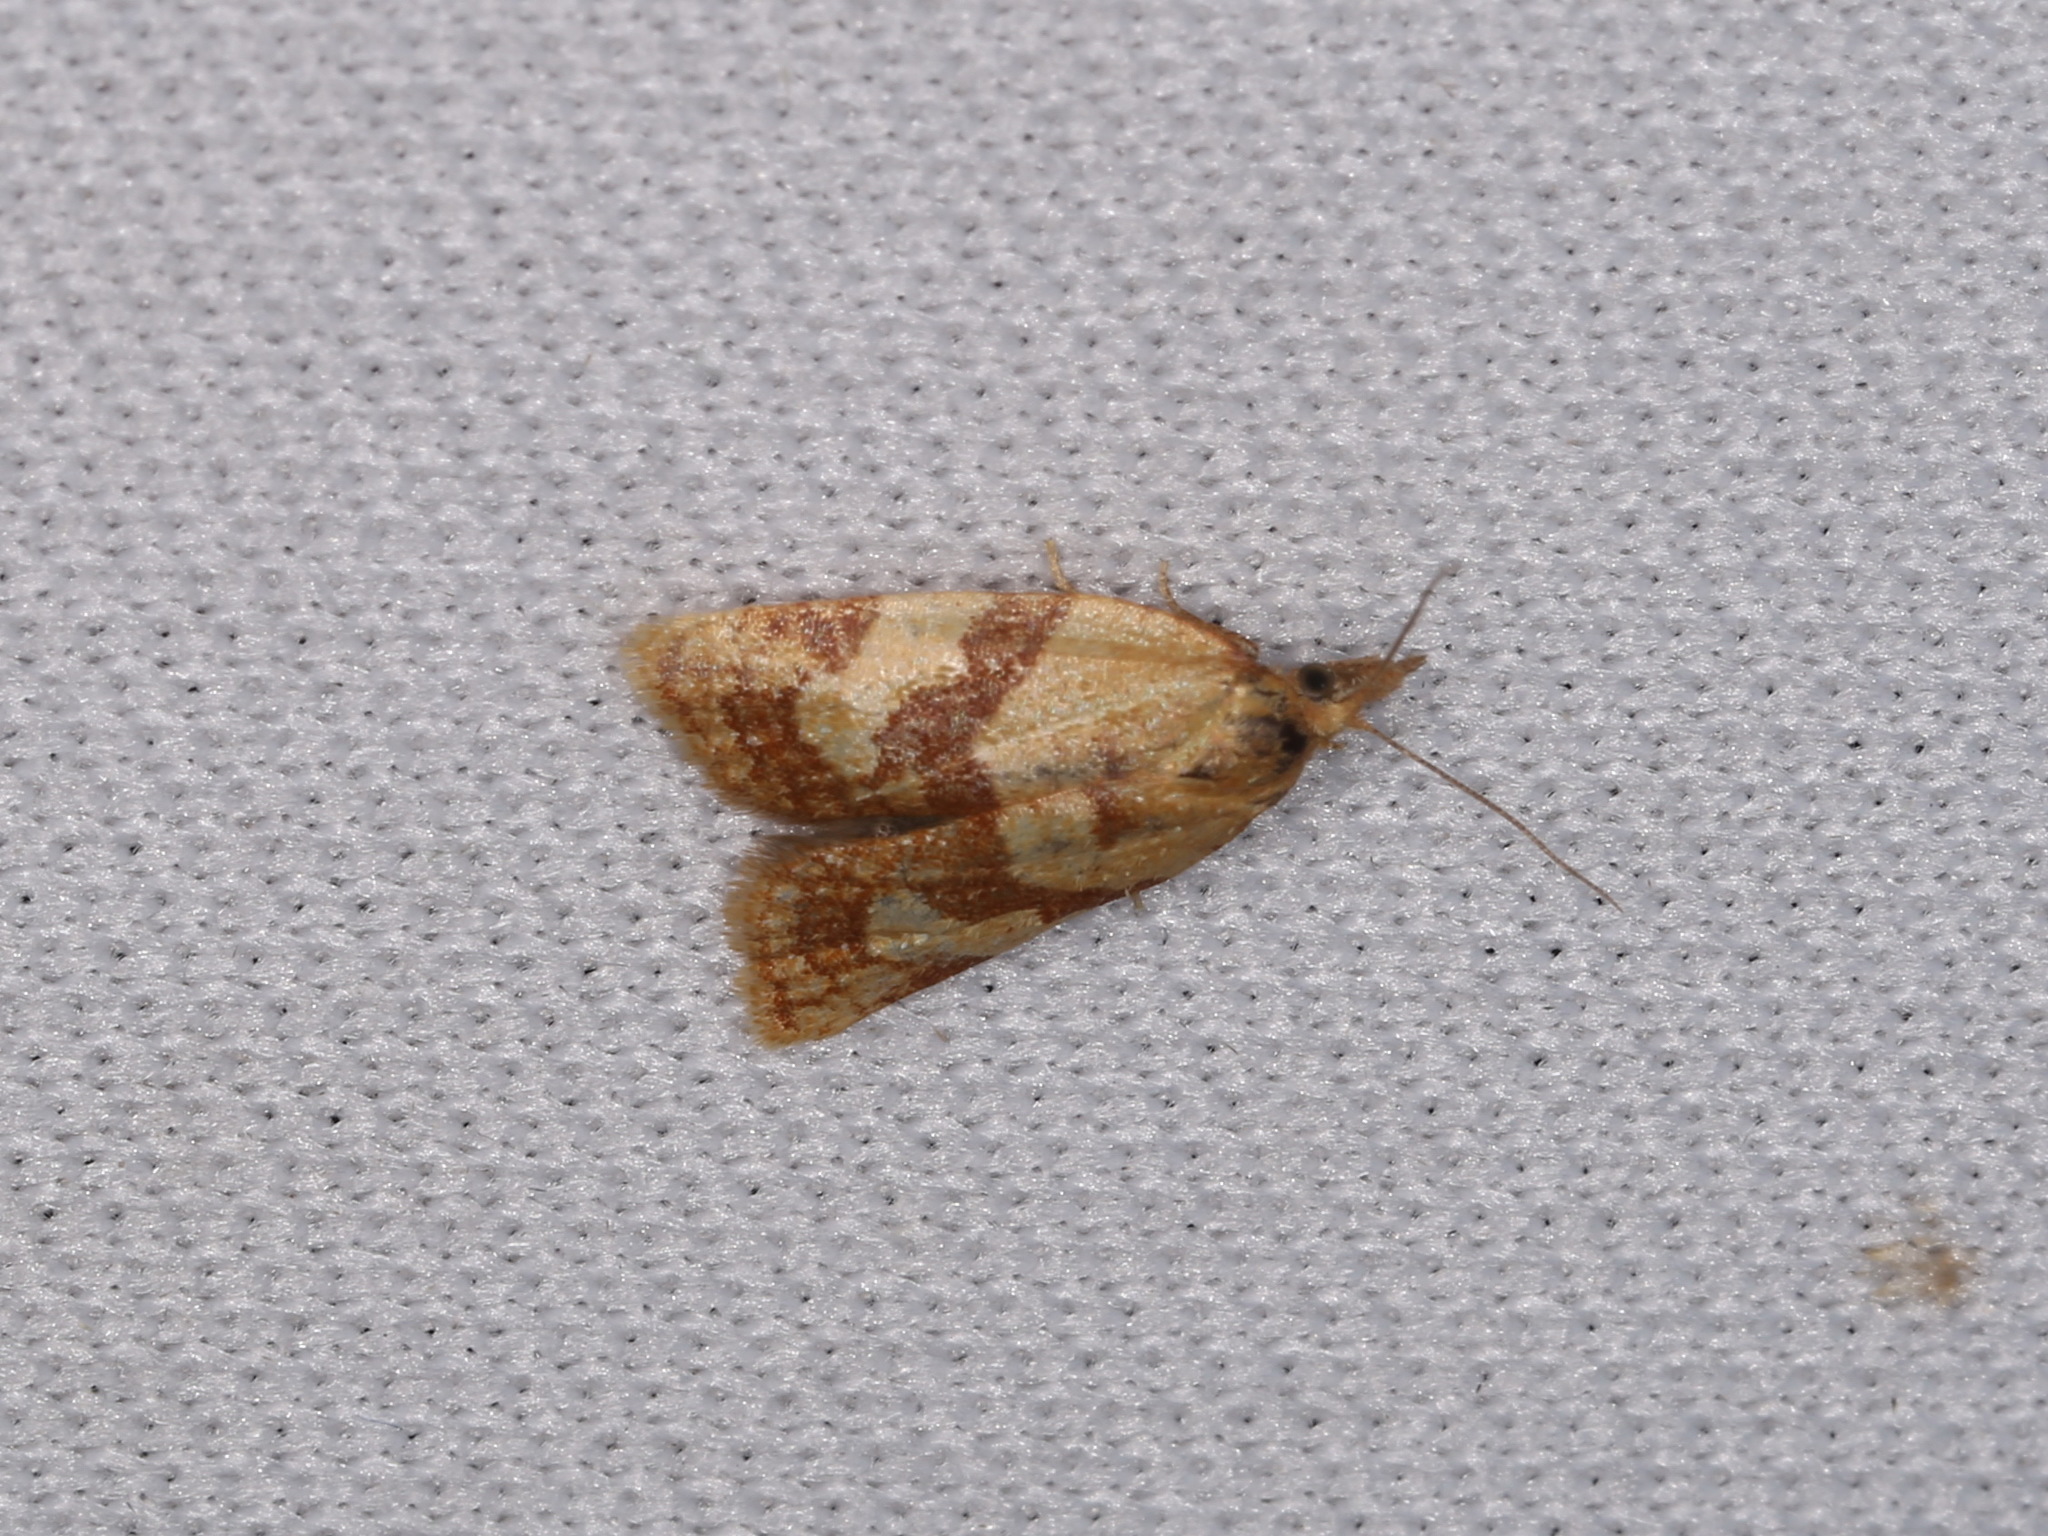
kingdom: Animalia
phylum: Arthropoda
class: Insecta
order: Lepidoptera
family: Tortricidae
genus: Sparganothis
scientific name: Sparganothis senecionana
